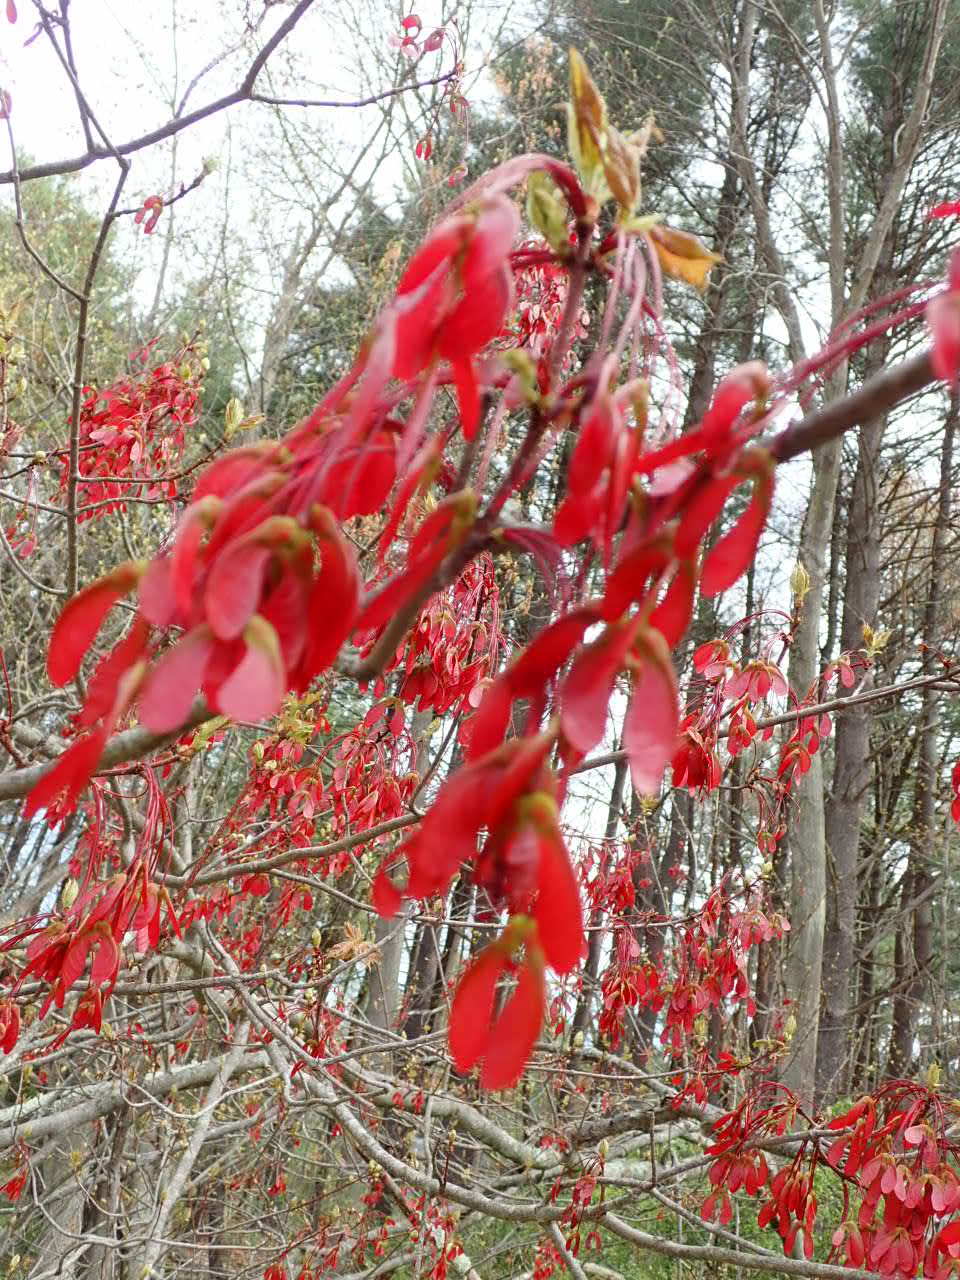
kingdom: Plantae
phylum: Tracheophyta
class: Magnoliopsida
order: Sapindales
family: Sapindaceae
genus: Acer
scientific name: Acer rubrum
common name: Red maple
